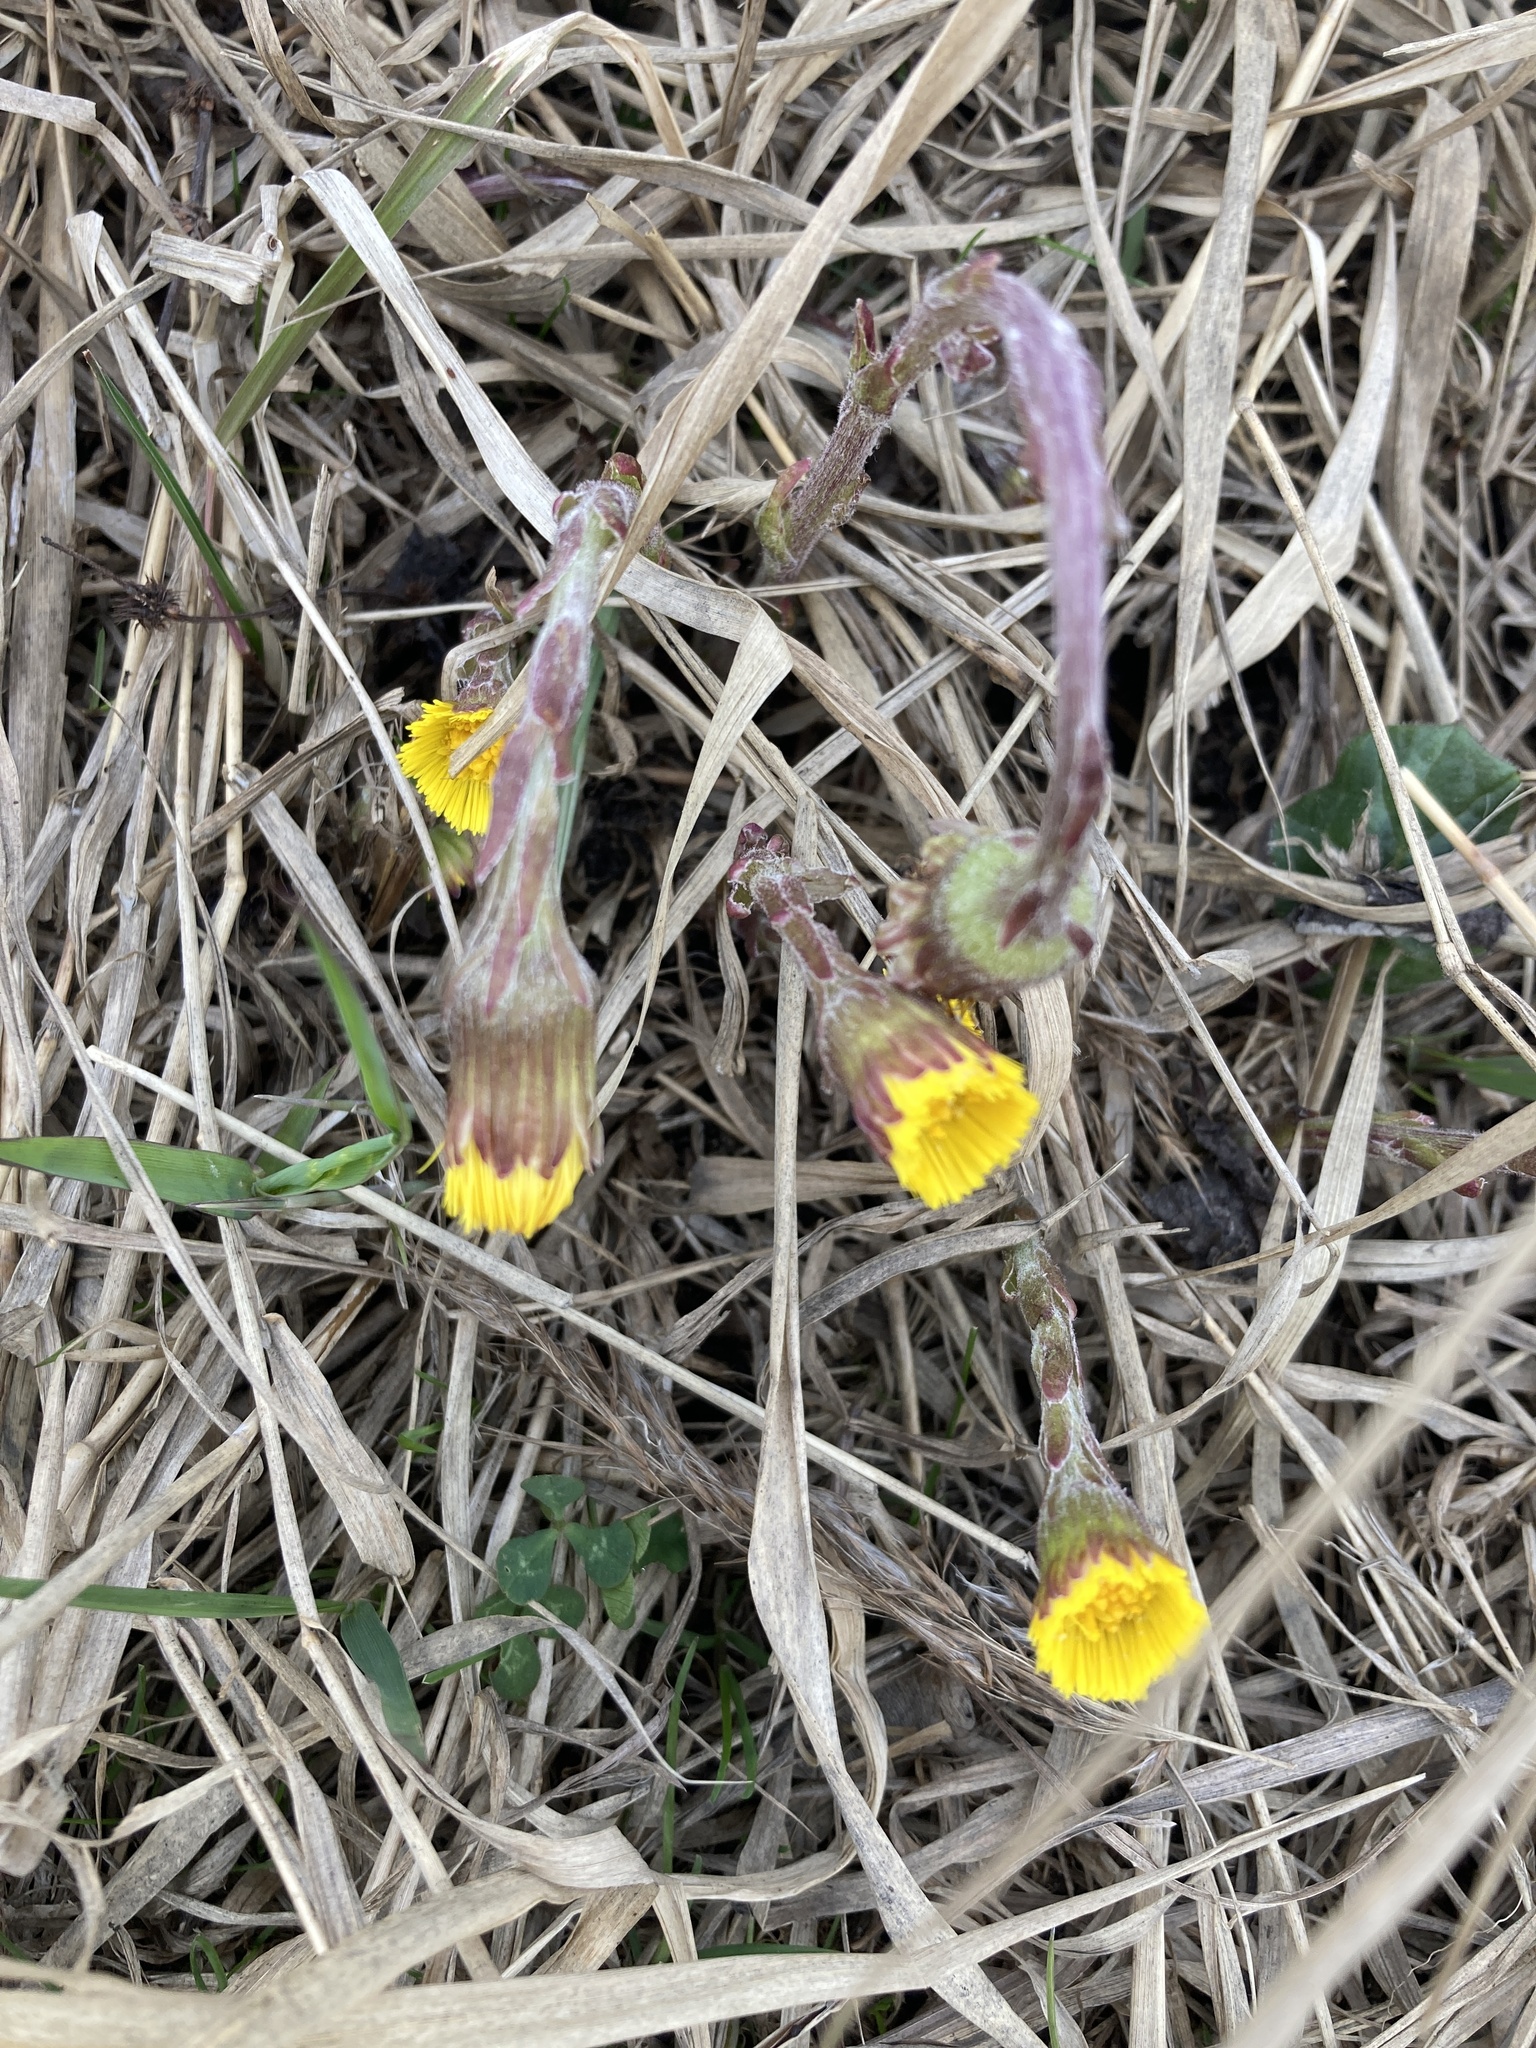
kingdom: Plantae
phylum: Tracheophyta
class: Magnoliopsida
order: Asterales
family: Asteraceae
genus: Tussilago
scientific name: Tussilago farfara
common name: Coltsfoot
